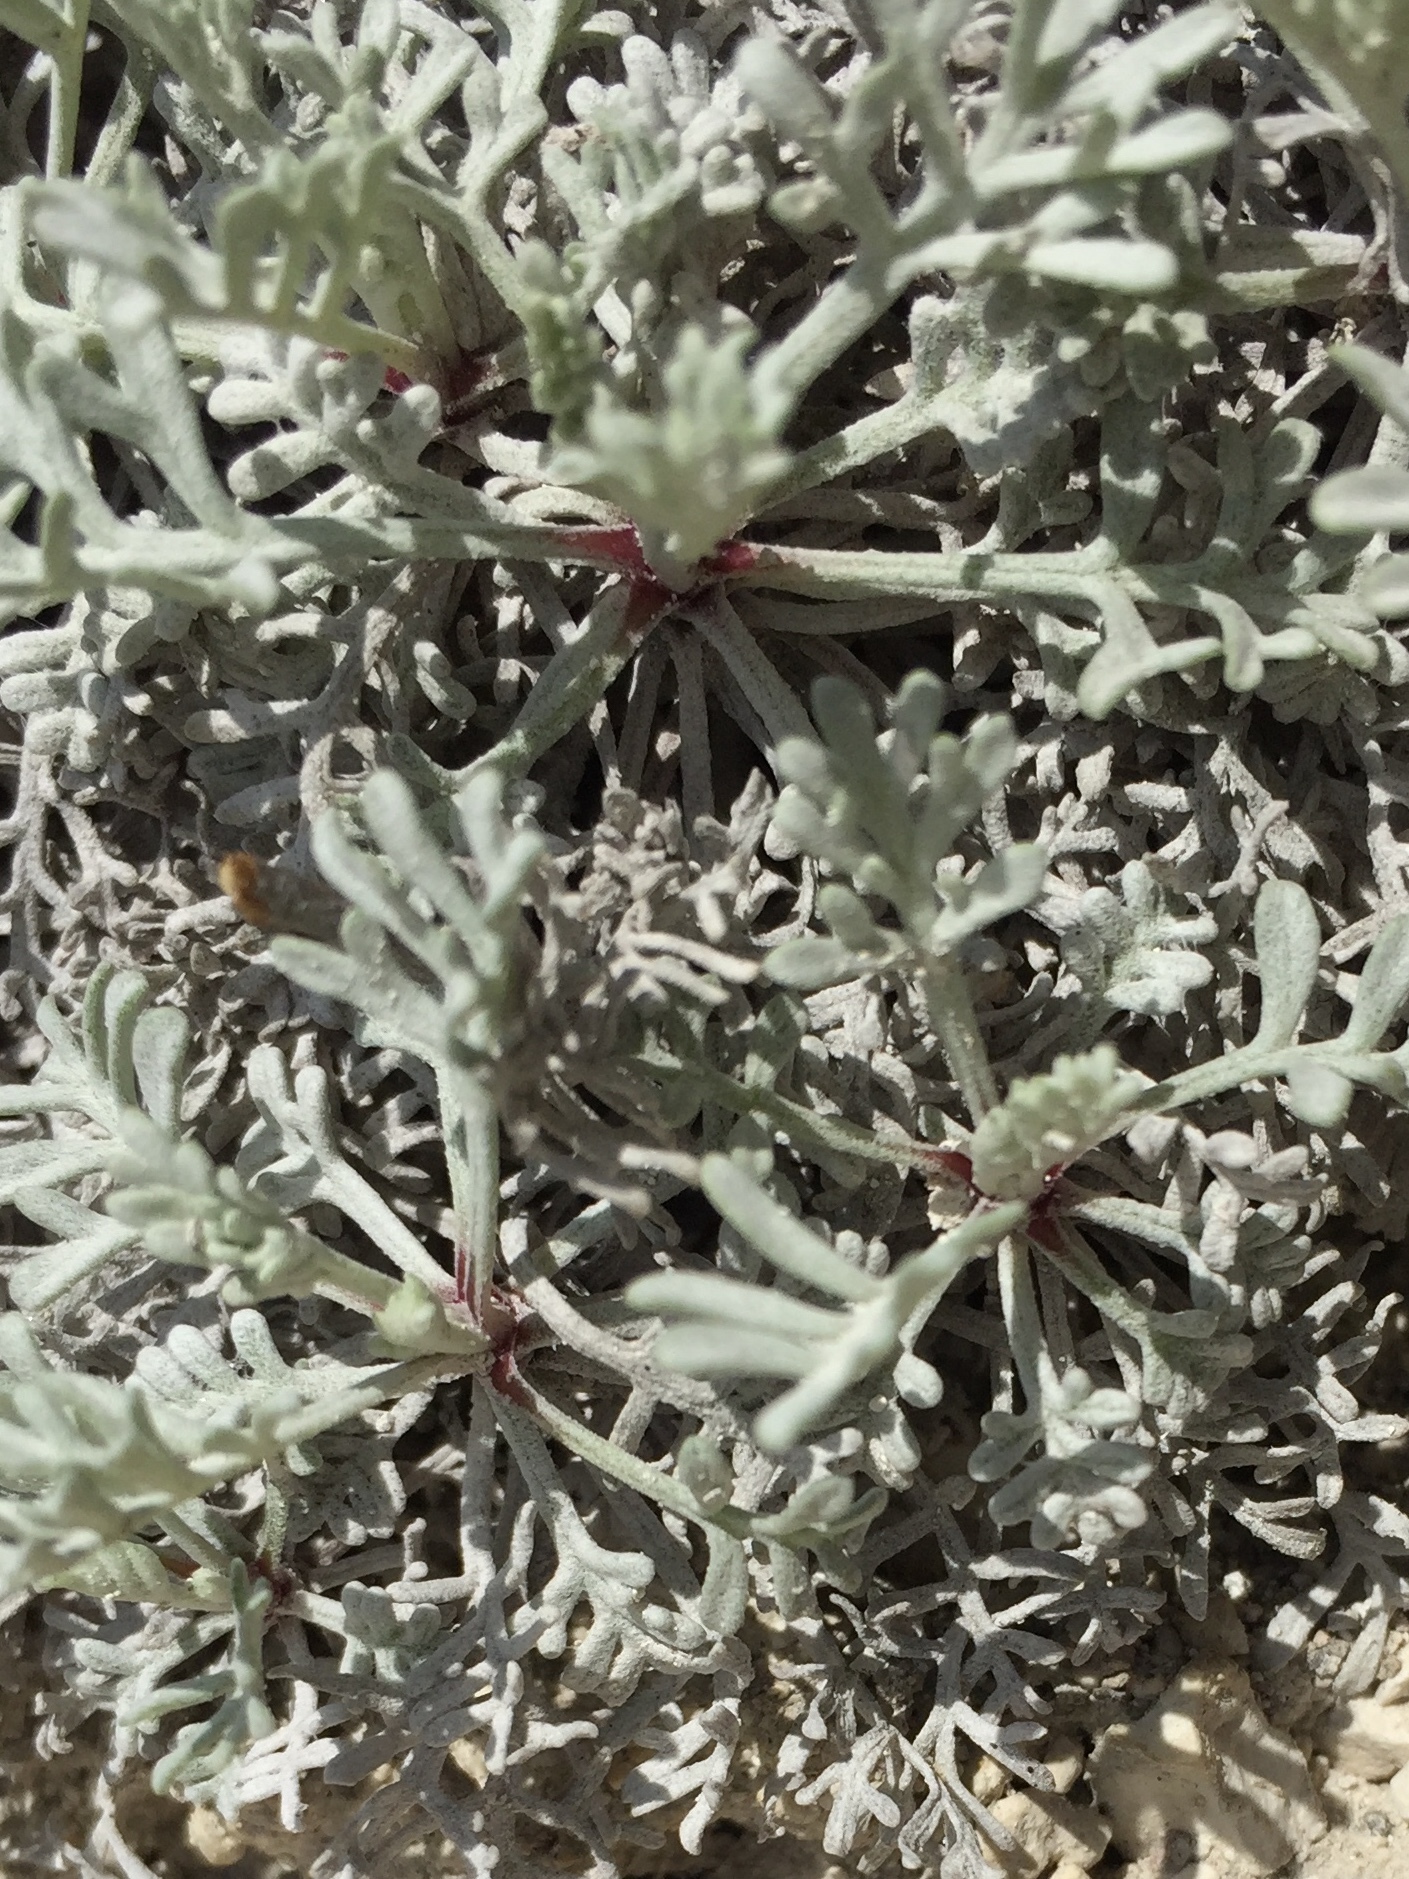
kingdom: Plantae
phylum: Tracheophyta
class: Magnoliopsida
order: Asterales
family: Asteraceae
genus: Artemisia
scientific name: Artemisia hololeuca
